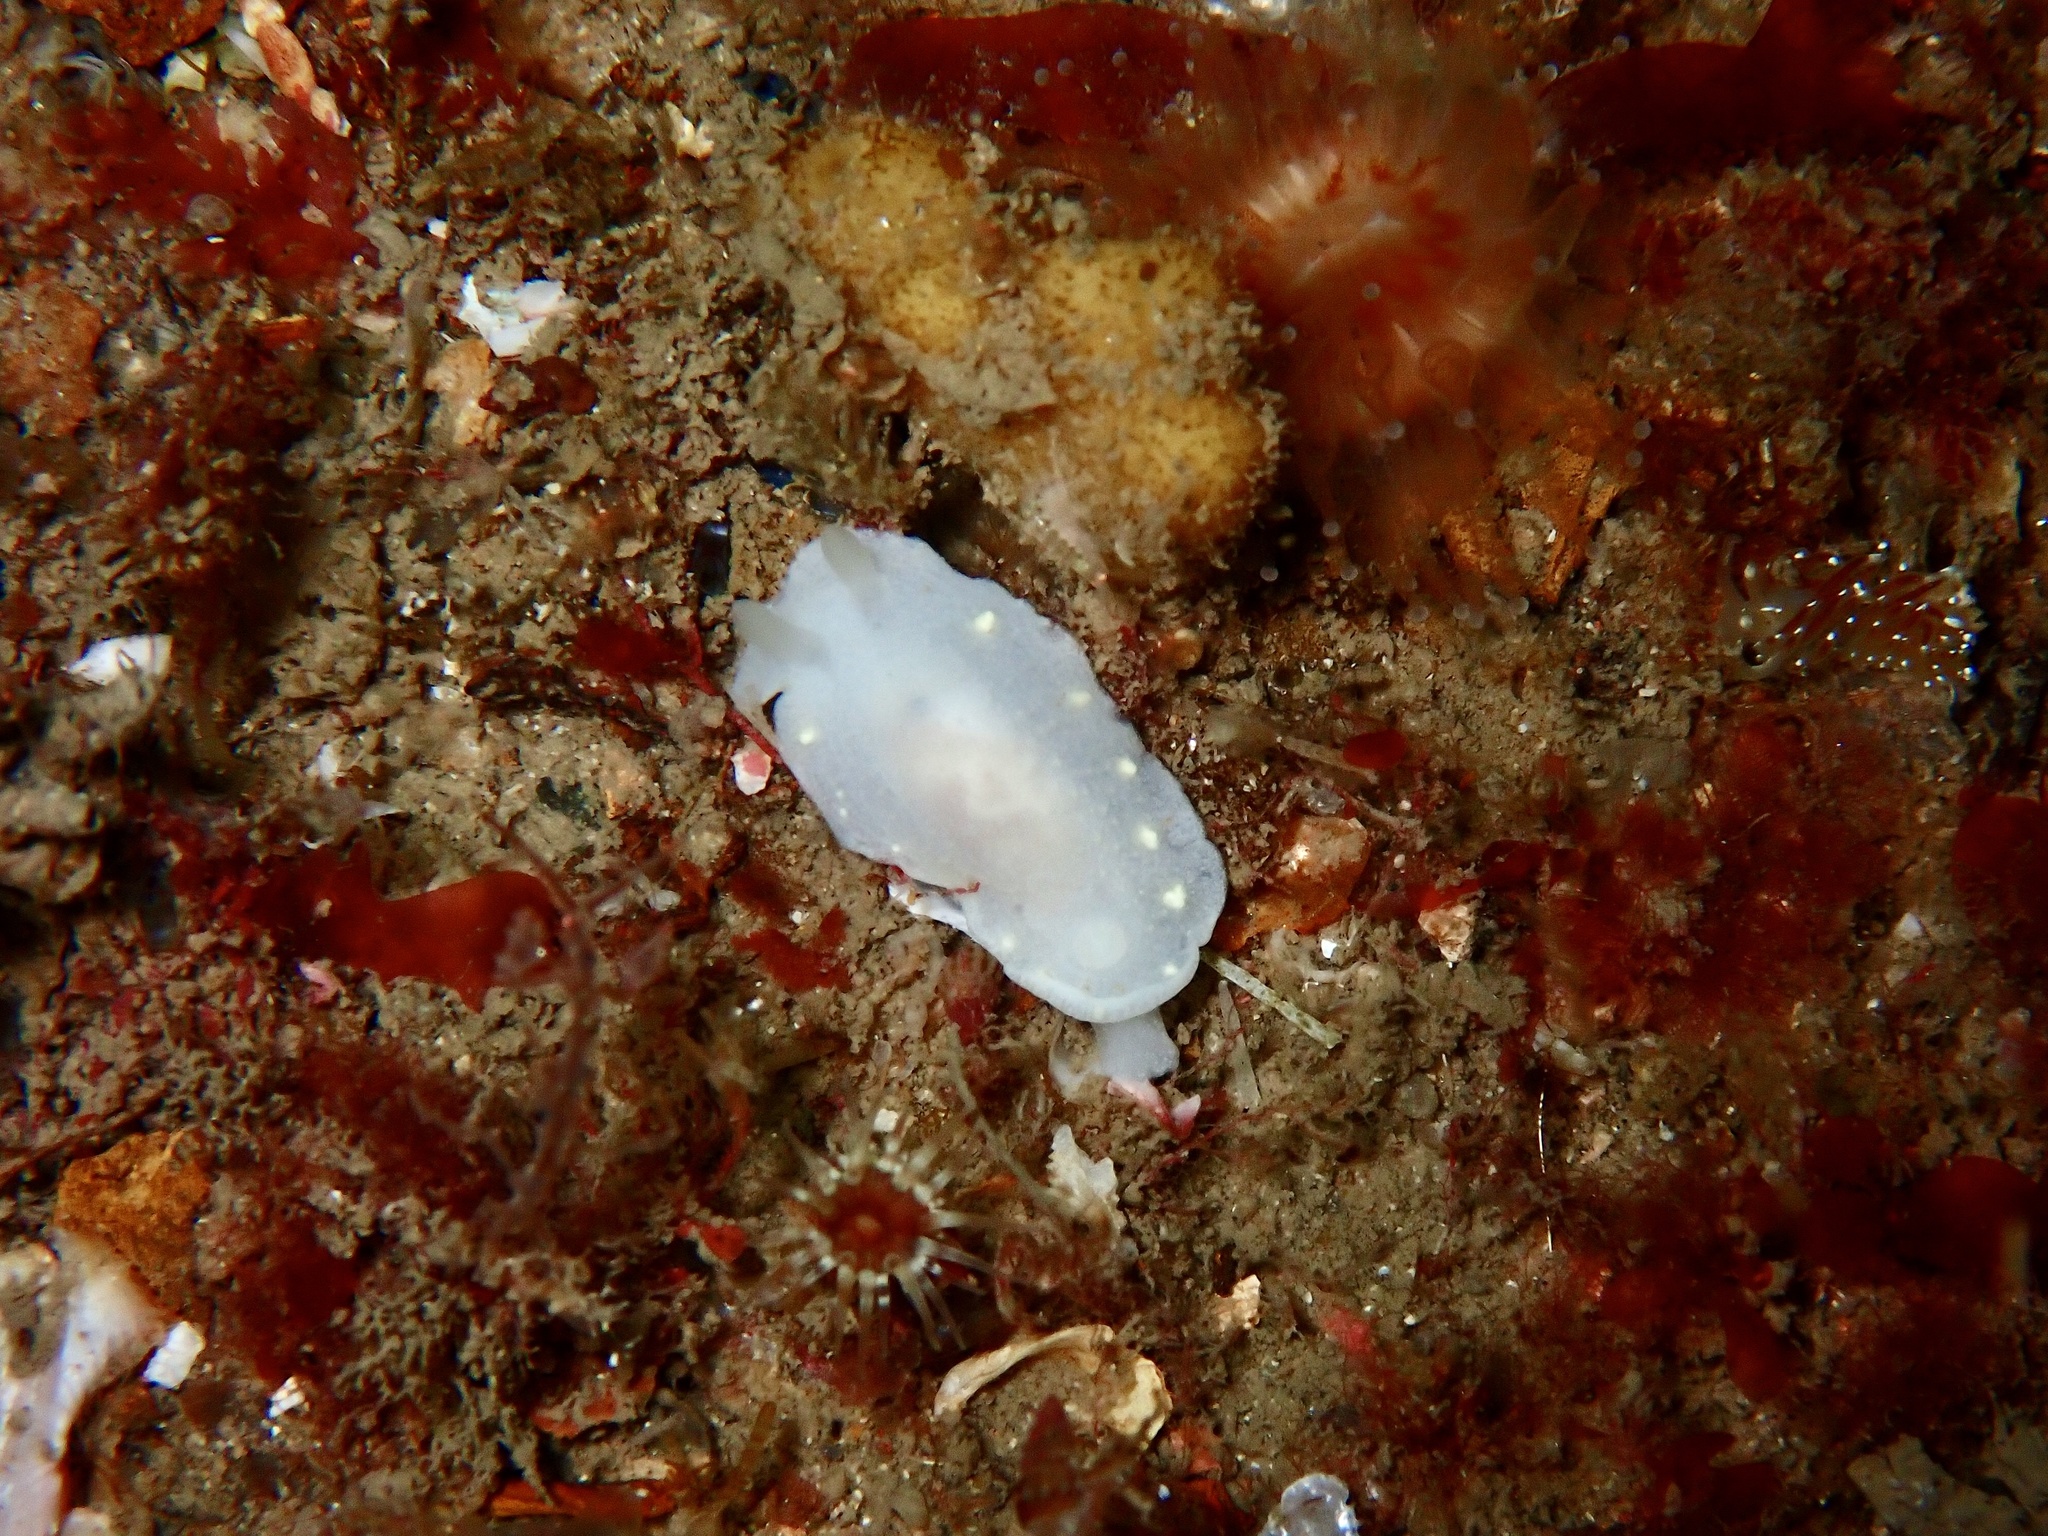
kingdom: Animalia
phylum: Mollusca
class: Gastropoda
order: Nudibranchia
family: Cadlinidae
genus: Cadlina
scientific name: Cadlina laevis
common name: White atlantic cadlina
